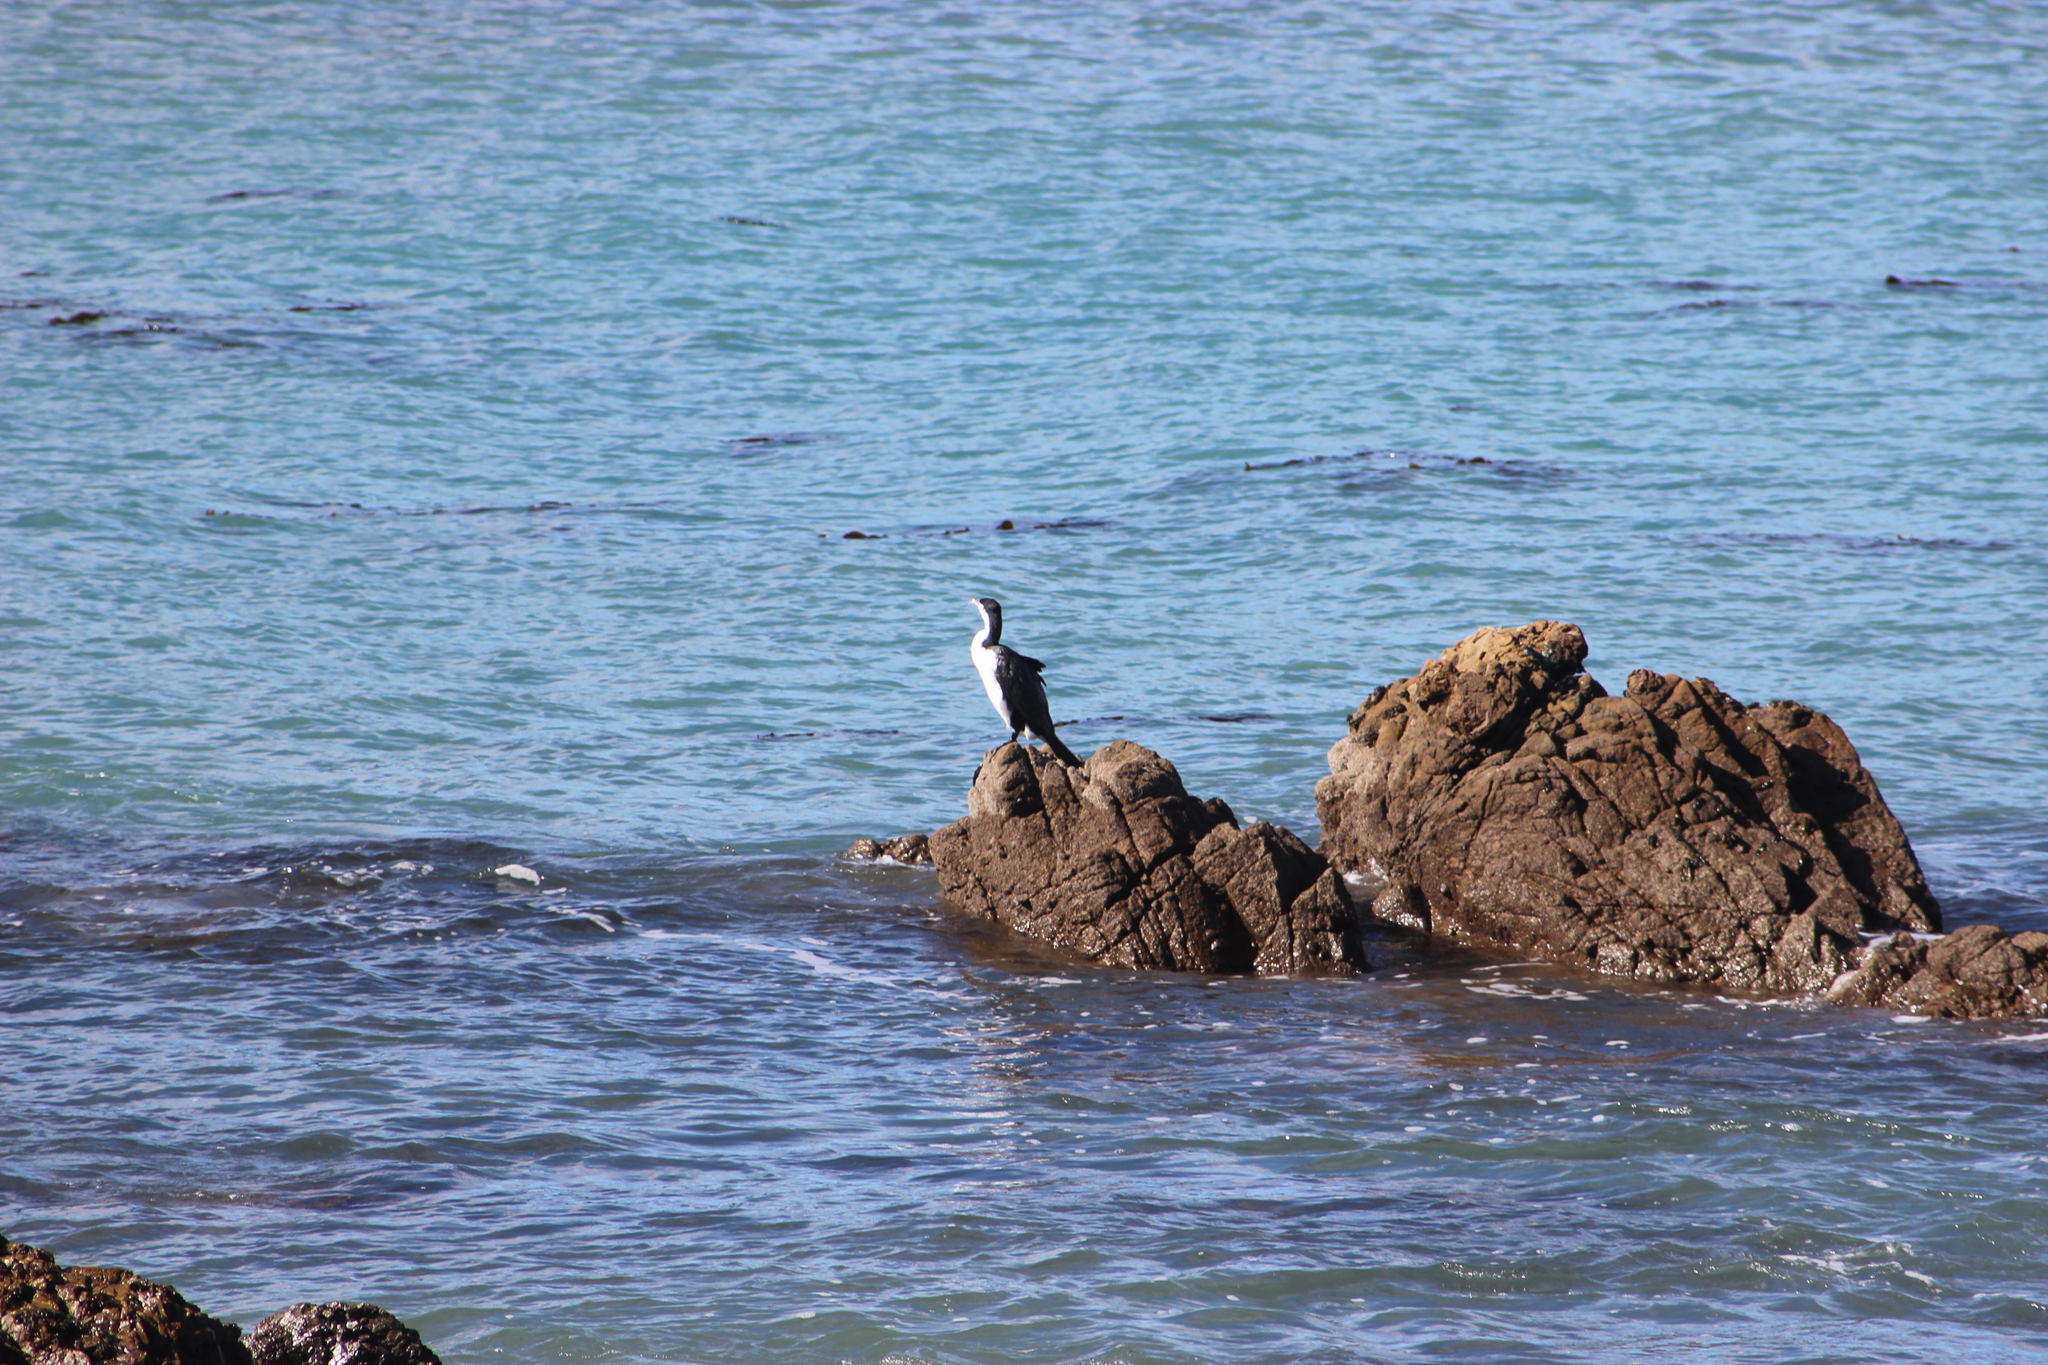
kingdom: Animalia
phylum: Chordata
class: Aves
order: Suliformes
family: Phalacrocoracidae
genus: Phalacrocorax
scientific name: Phalacrocorax varius
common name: Pied cormorant
